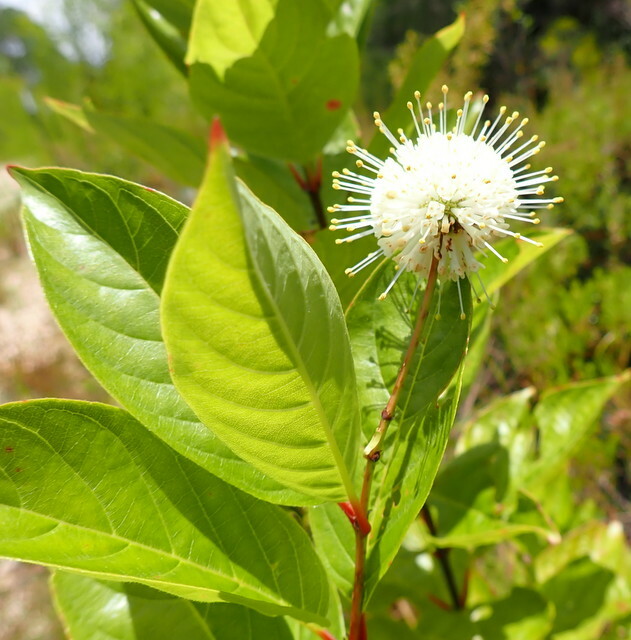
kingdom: Plantae
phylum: Tracheophyta
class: Magnoliopsida
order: Gentianales
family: Rubiaceae
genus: Cephalanthus
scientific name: Cephalanthus occidentalis
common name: Button-willow
